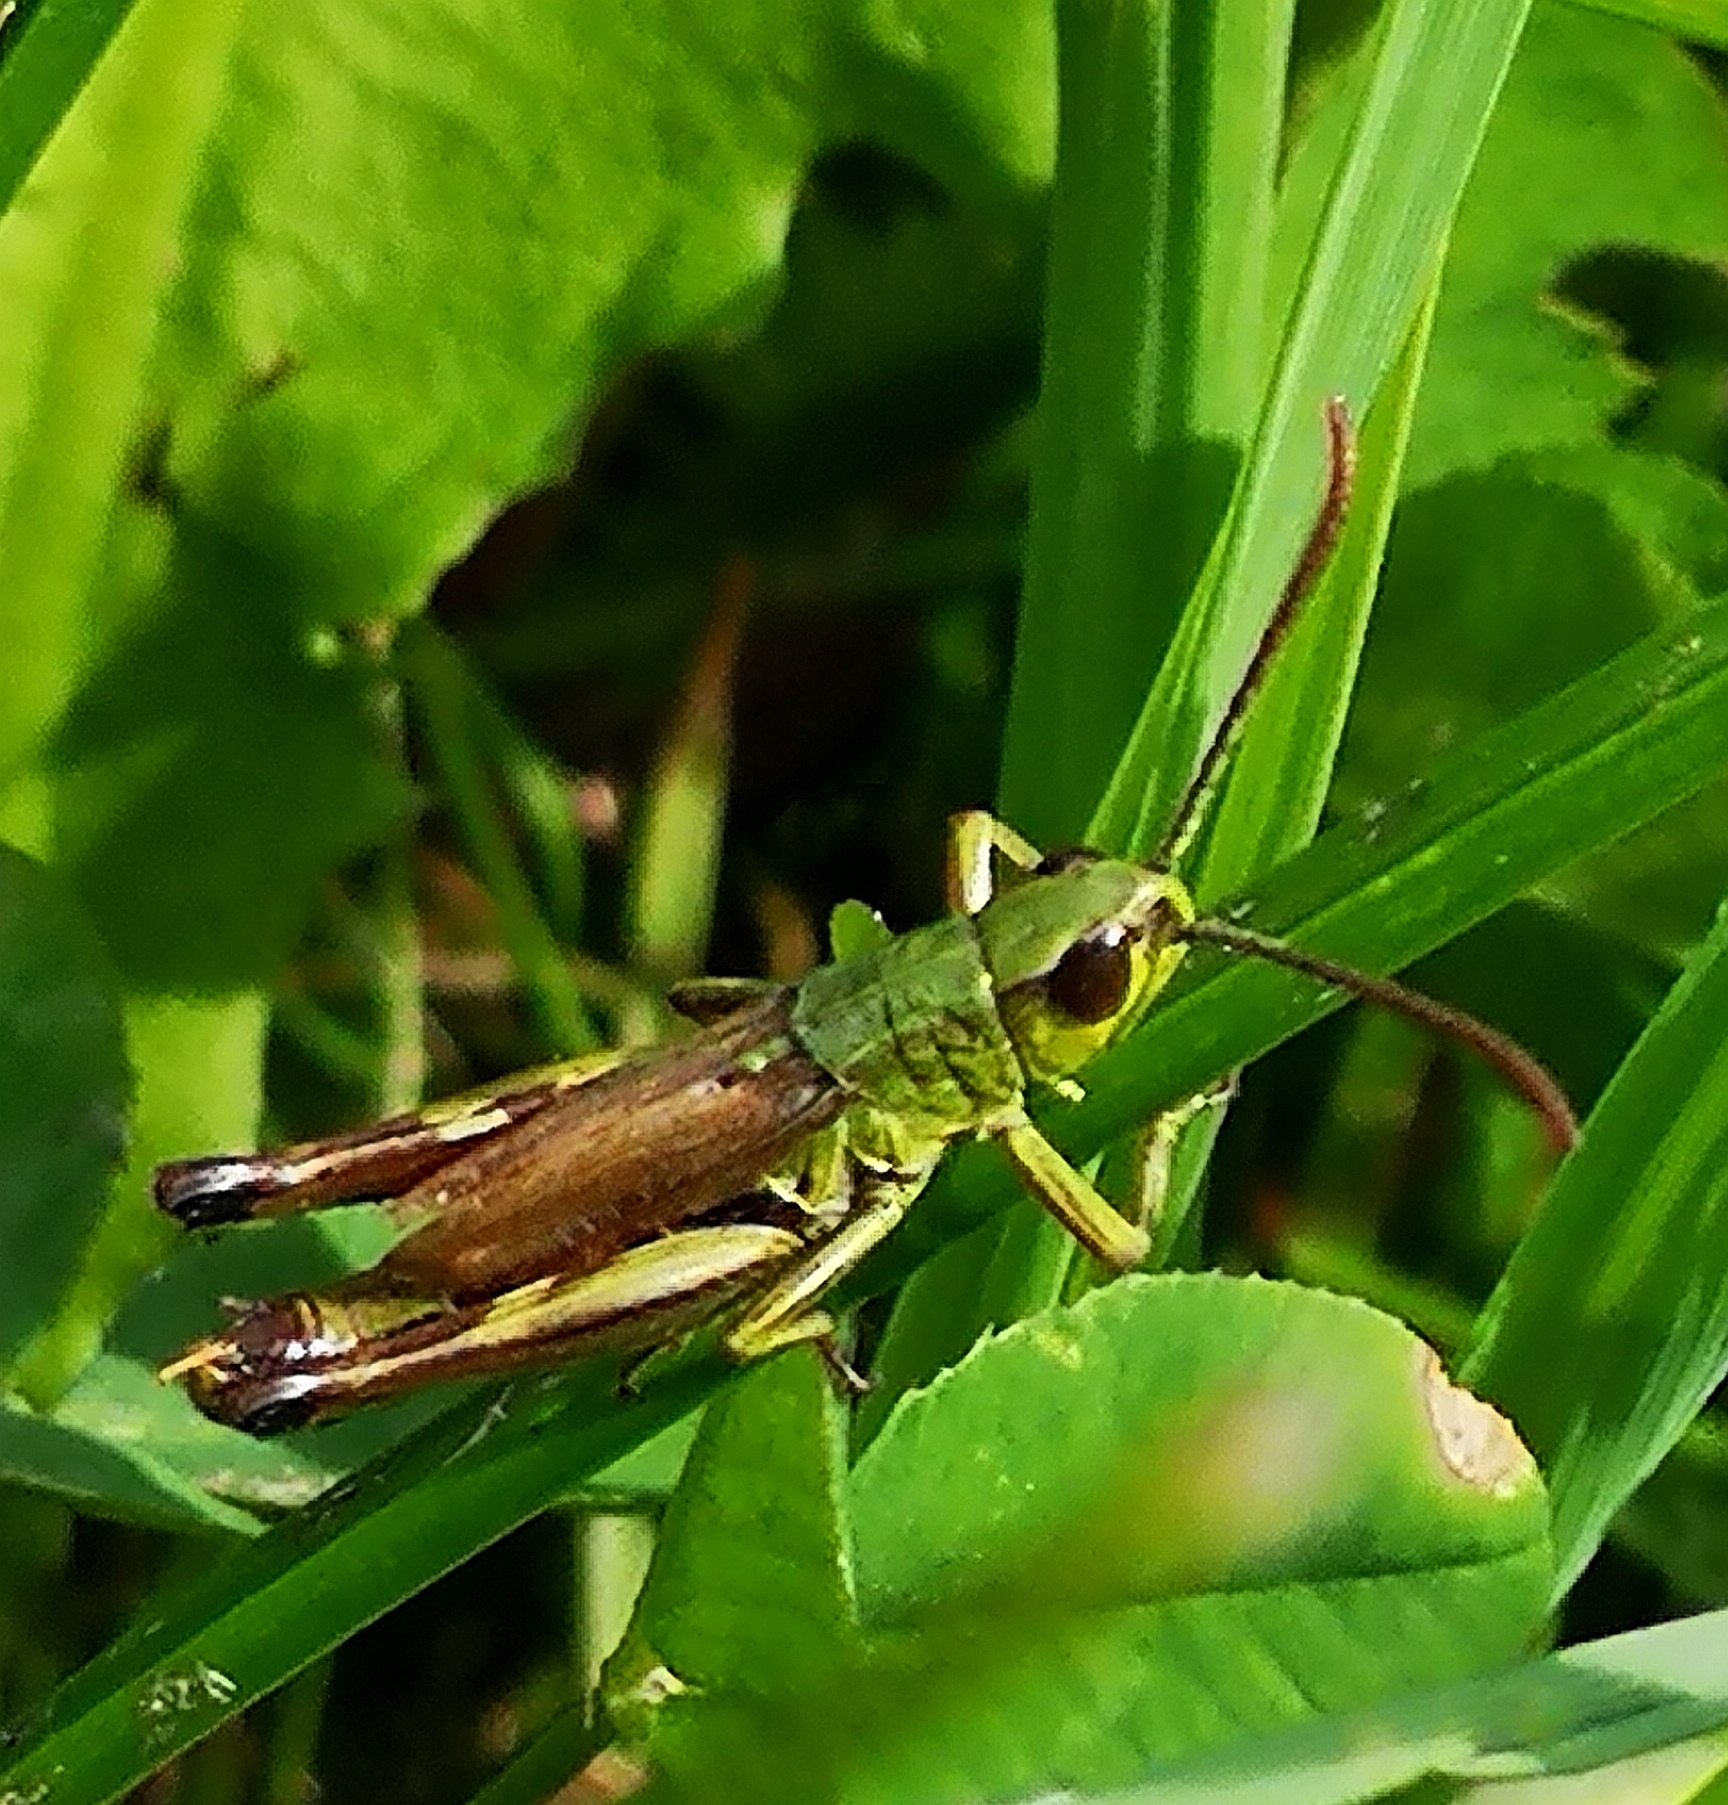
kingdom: Animalia
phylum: Arthropoda
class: Insecta
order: Orthoptera
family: Acrididae
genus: Pseudochorthippus
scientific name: Pseudochorthippus parallelus
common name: Meadow grasshopper
